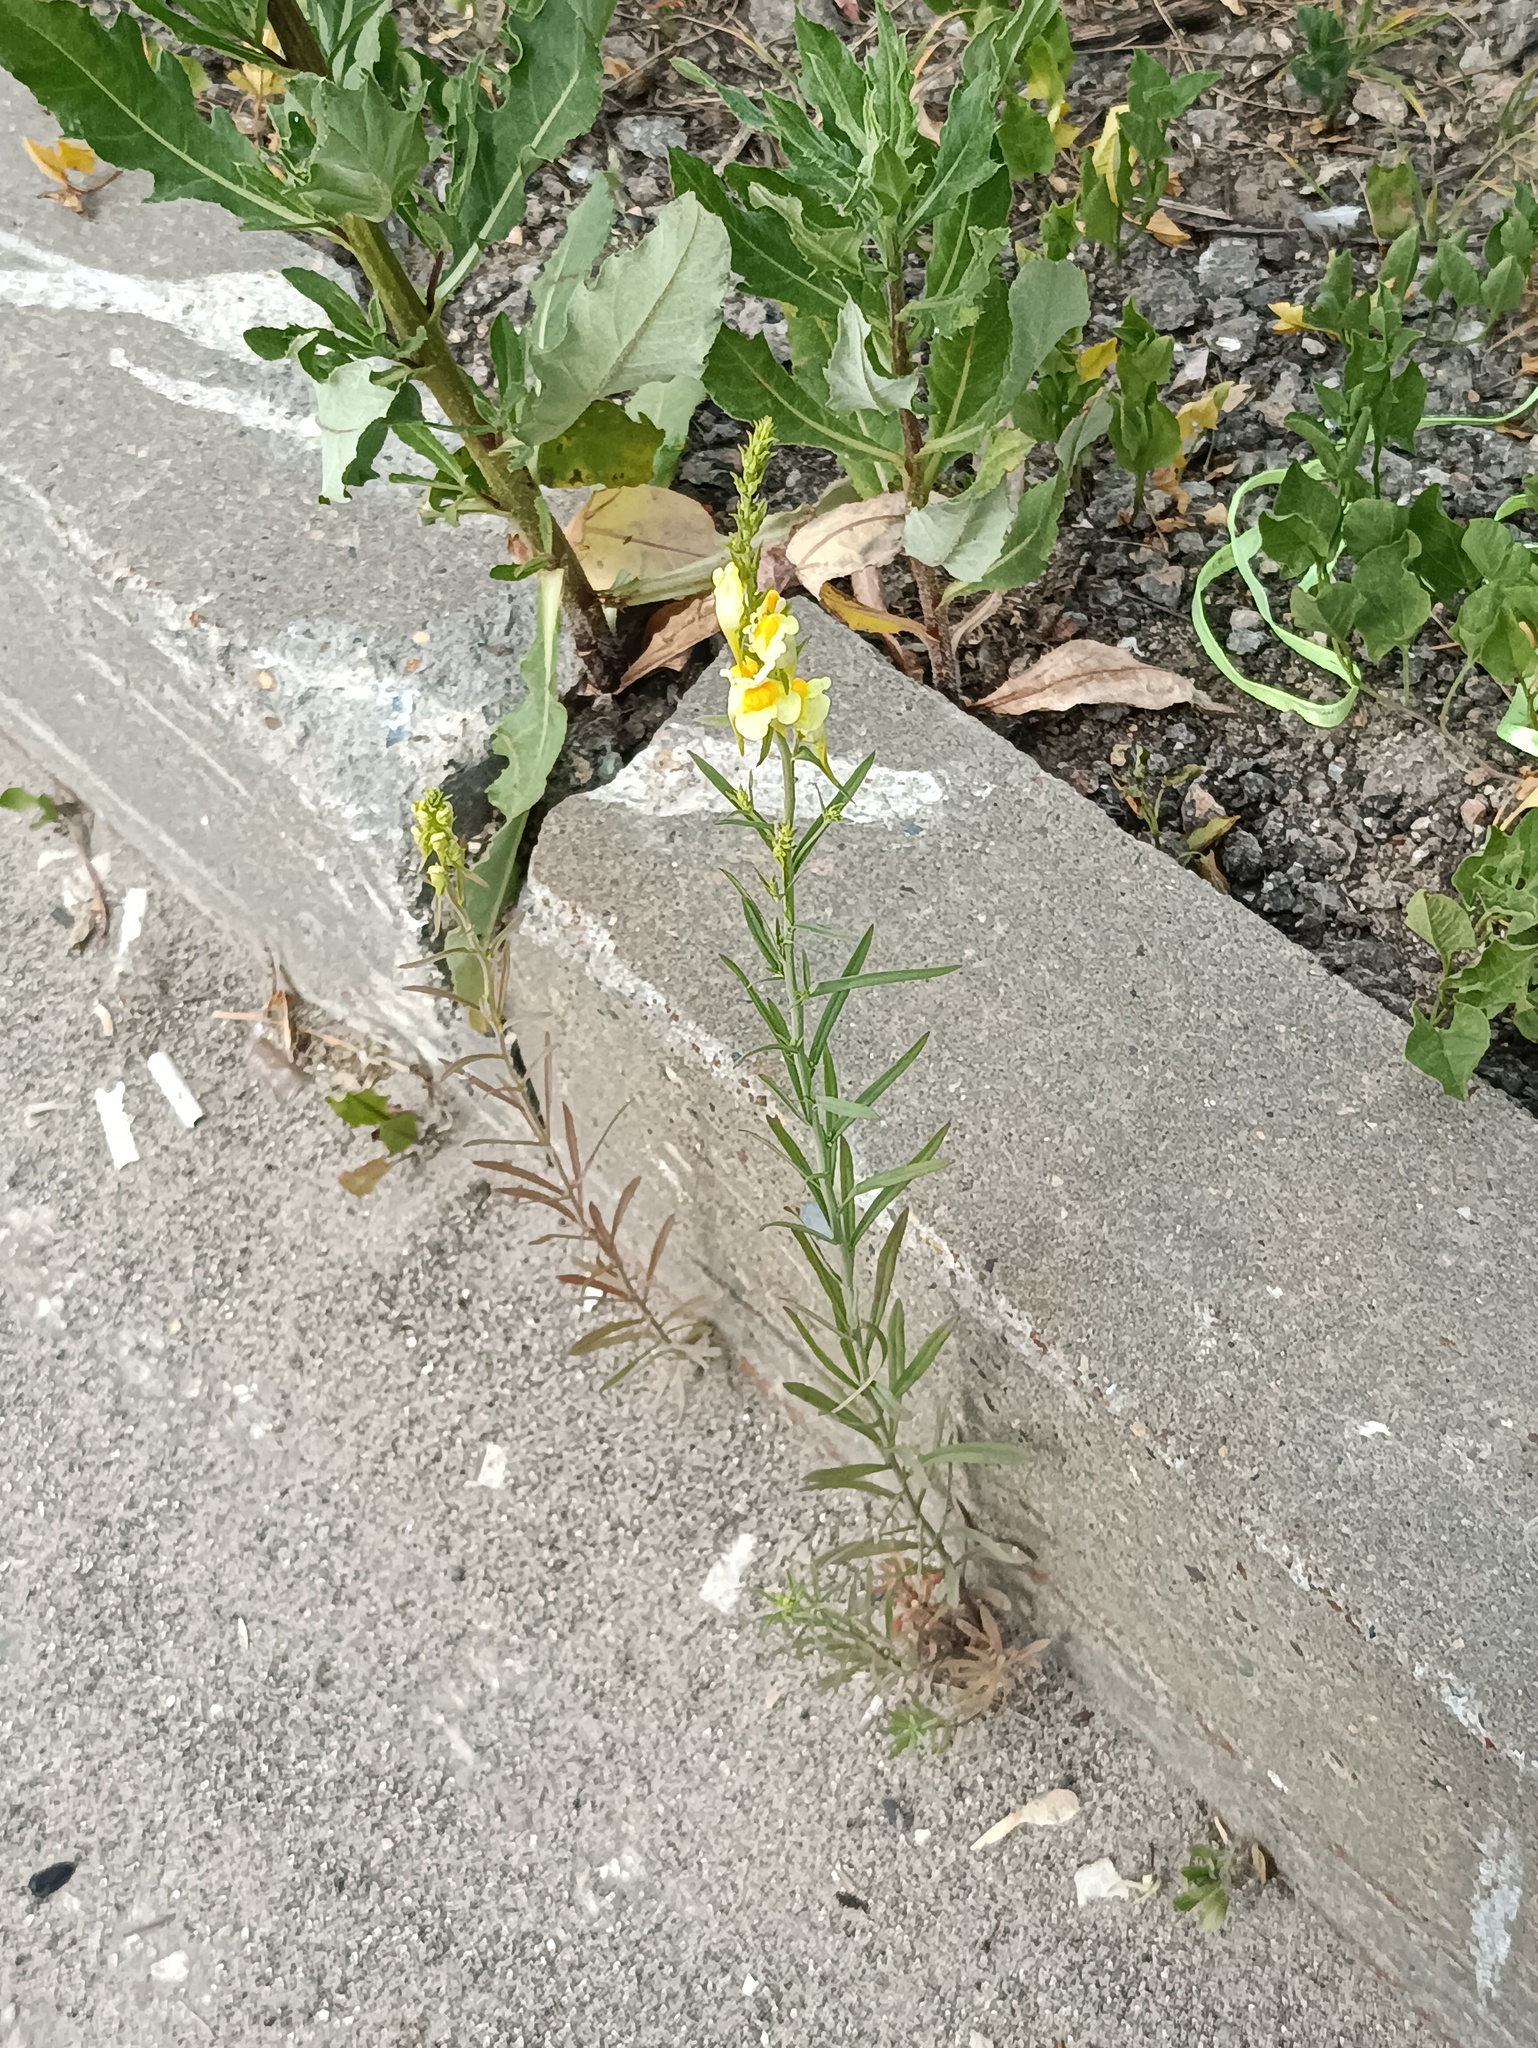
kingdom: Plantae
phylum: Tracheophyta
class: Magnoliopsida
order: Lamiales
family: Plantaginaceae
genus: Linaria
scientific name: Linaria vulgaris
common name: Butter and eggs
